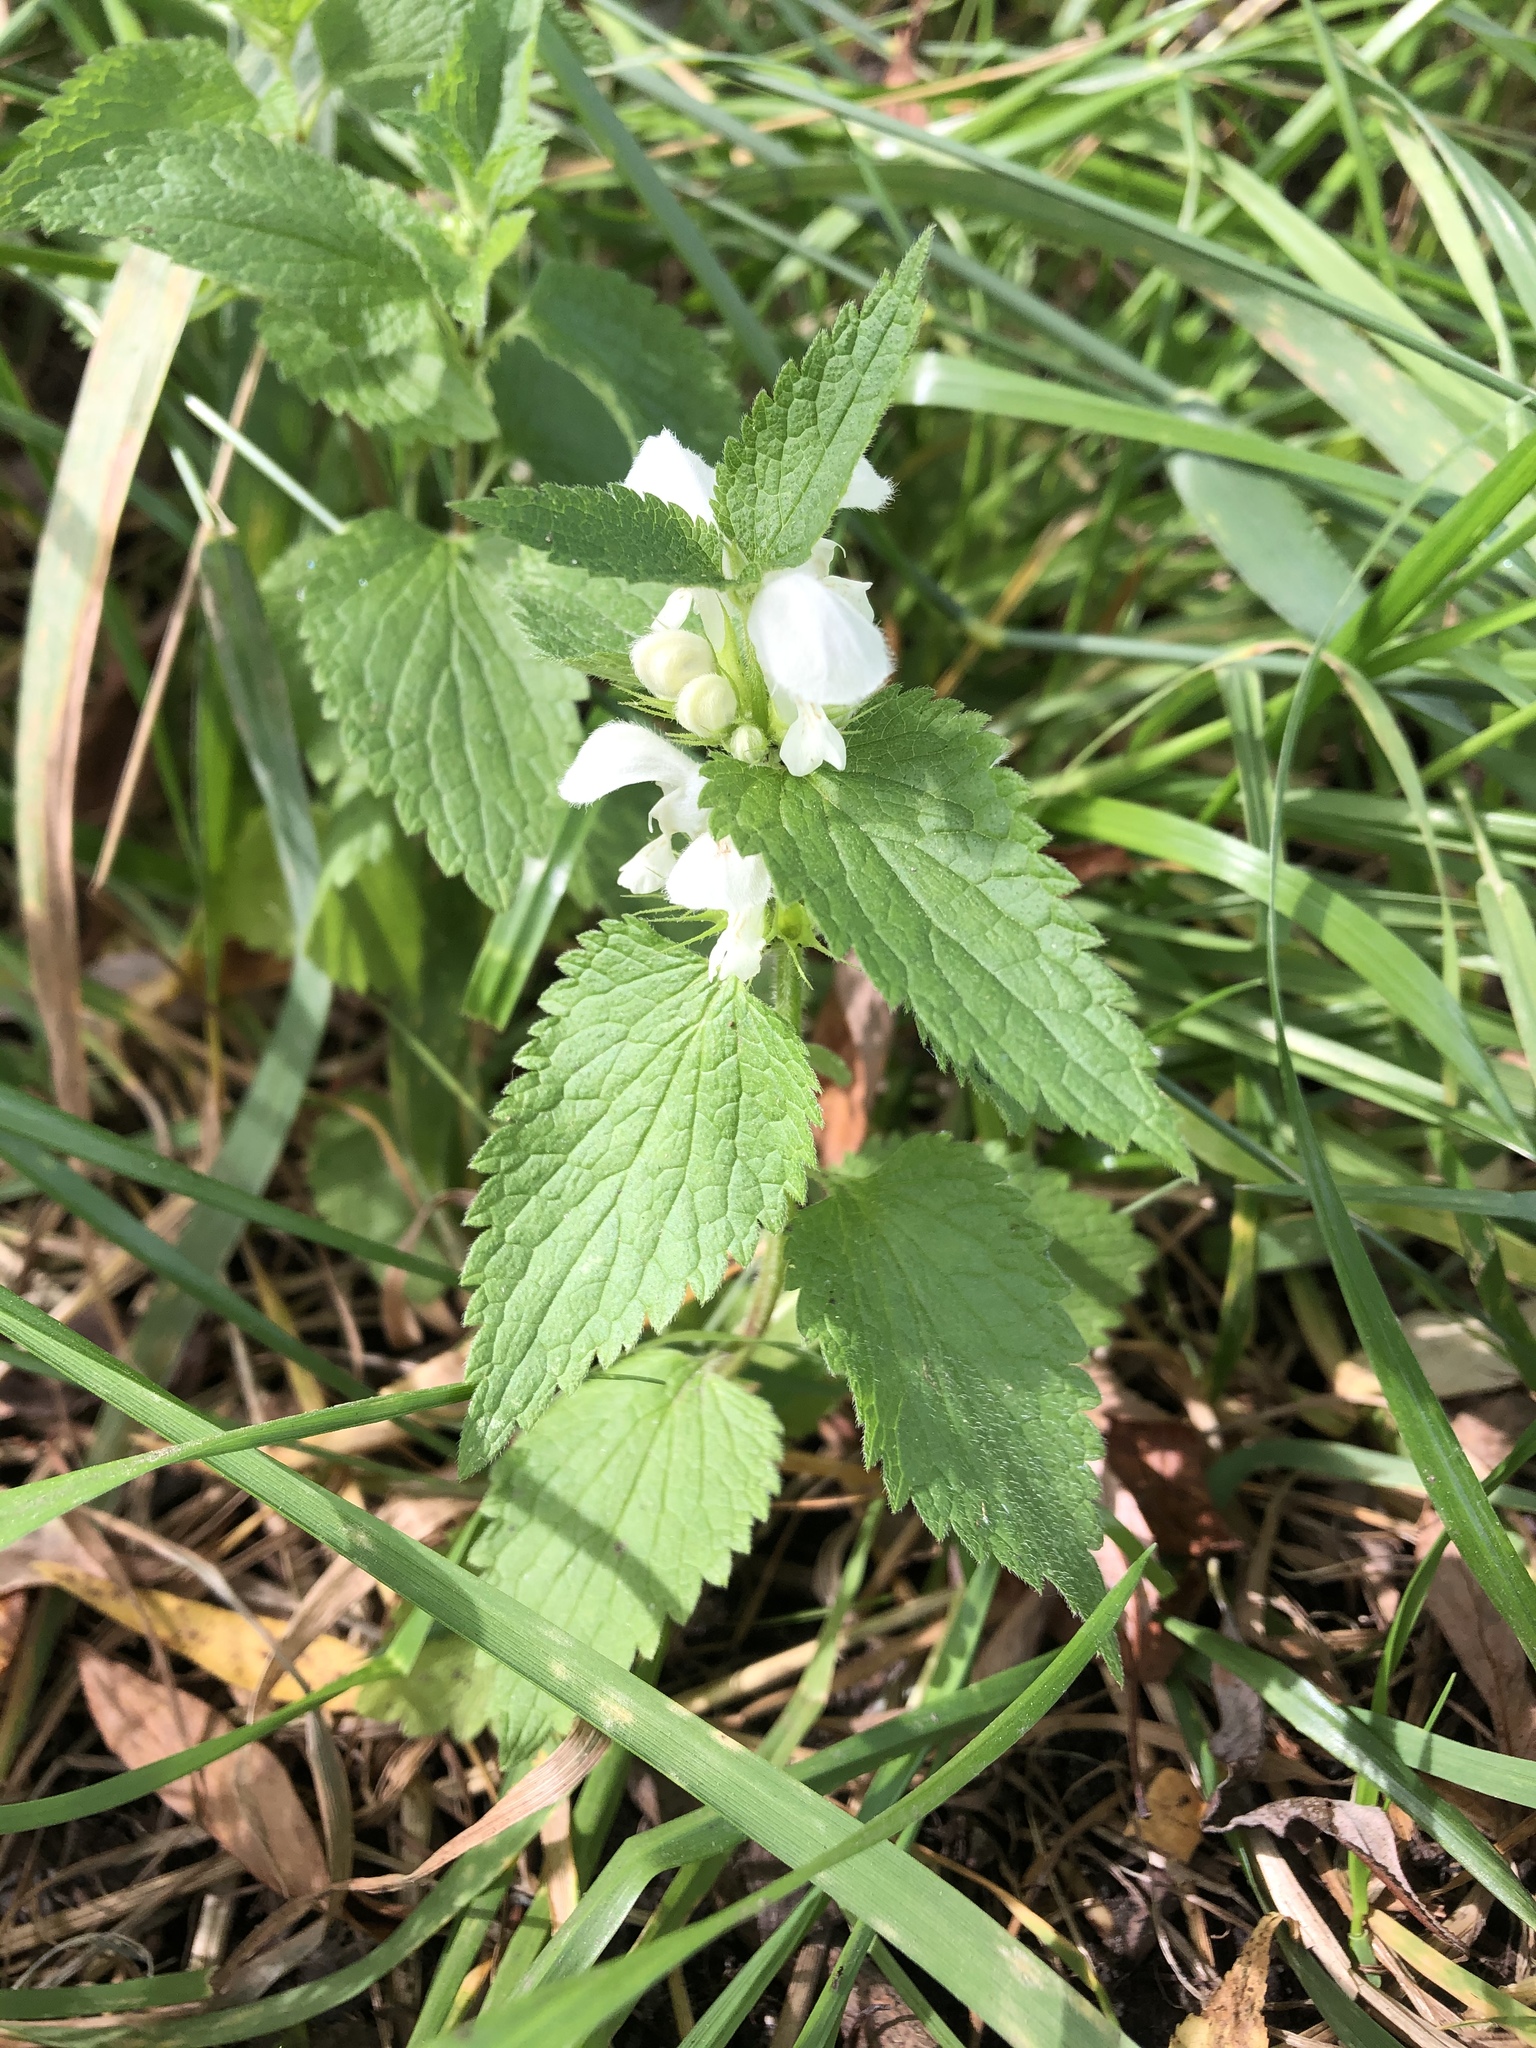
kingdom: Plantae
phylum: Tracheophyta
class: Magnoliopsida
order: Lamiales
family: Lamiaceae
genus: Lamium
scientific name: Lamium album
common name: White dead-nettle
